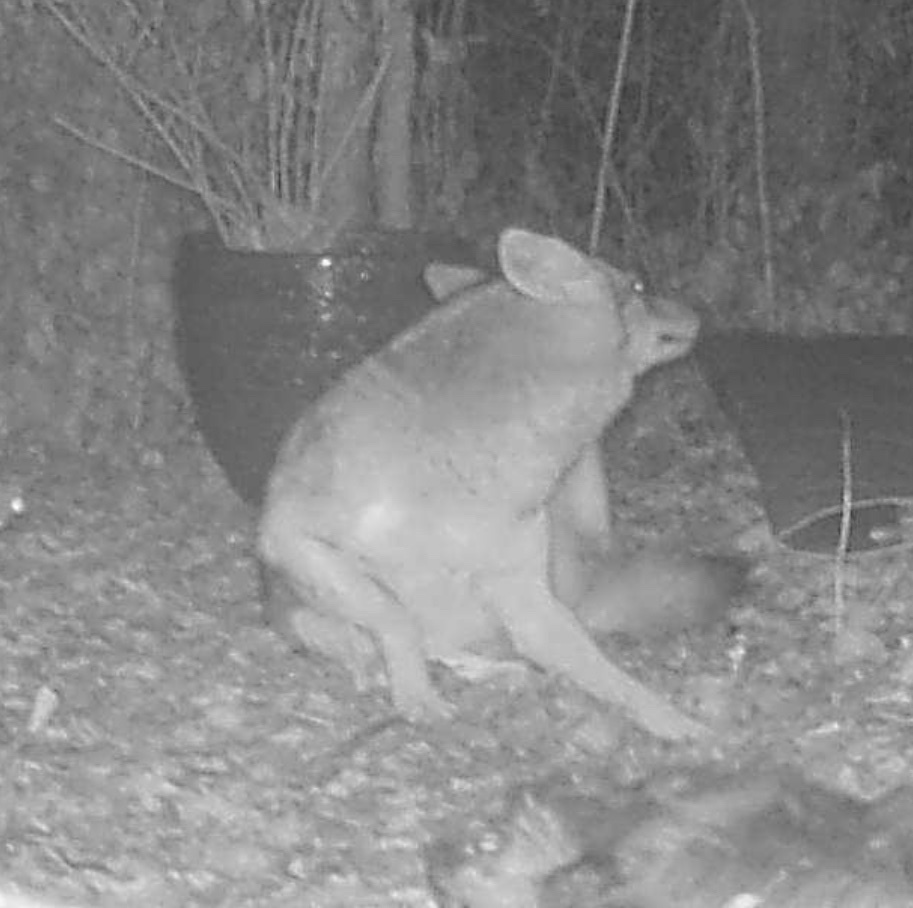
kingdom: Animalia
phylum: Chordata
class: Mammalia
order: Carnivora
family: Canidae
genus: Canis
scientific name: Canis latrans
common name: Coyote
